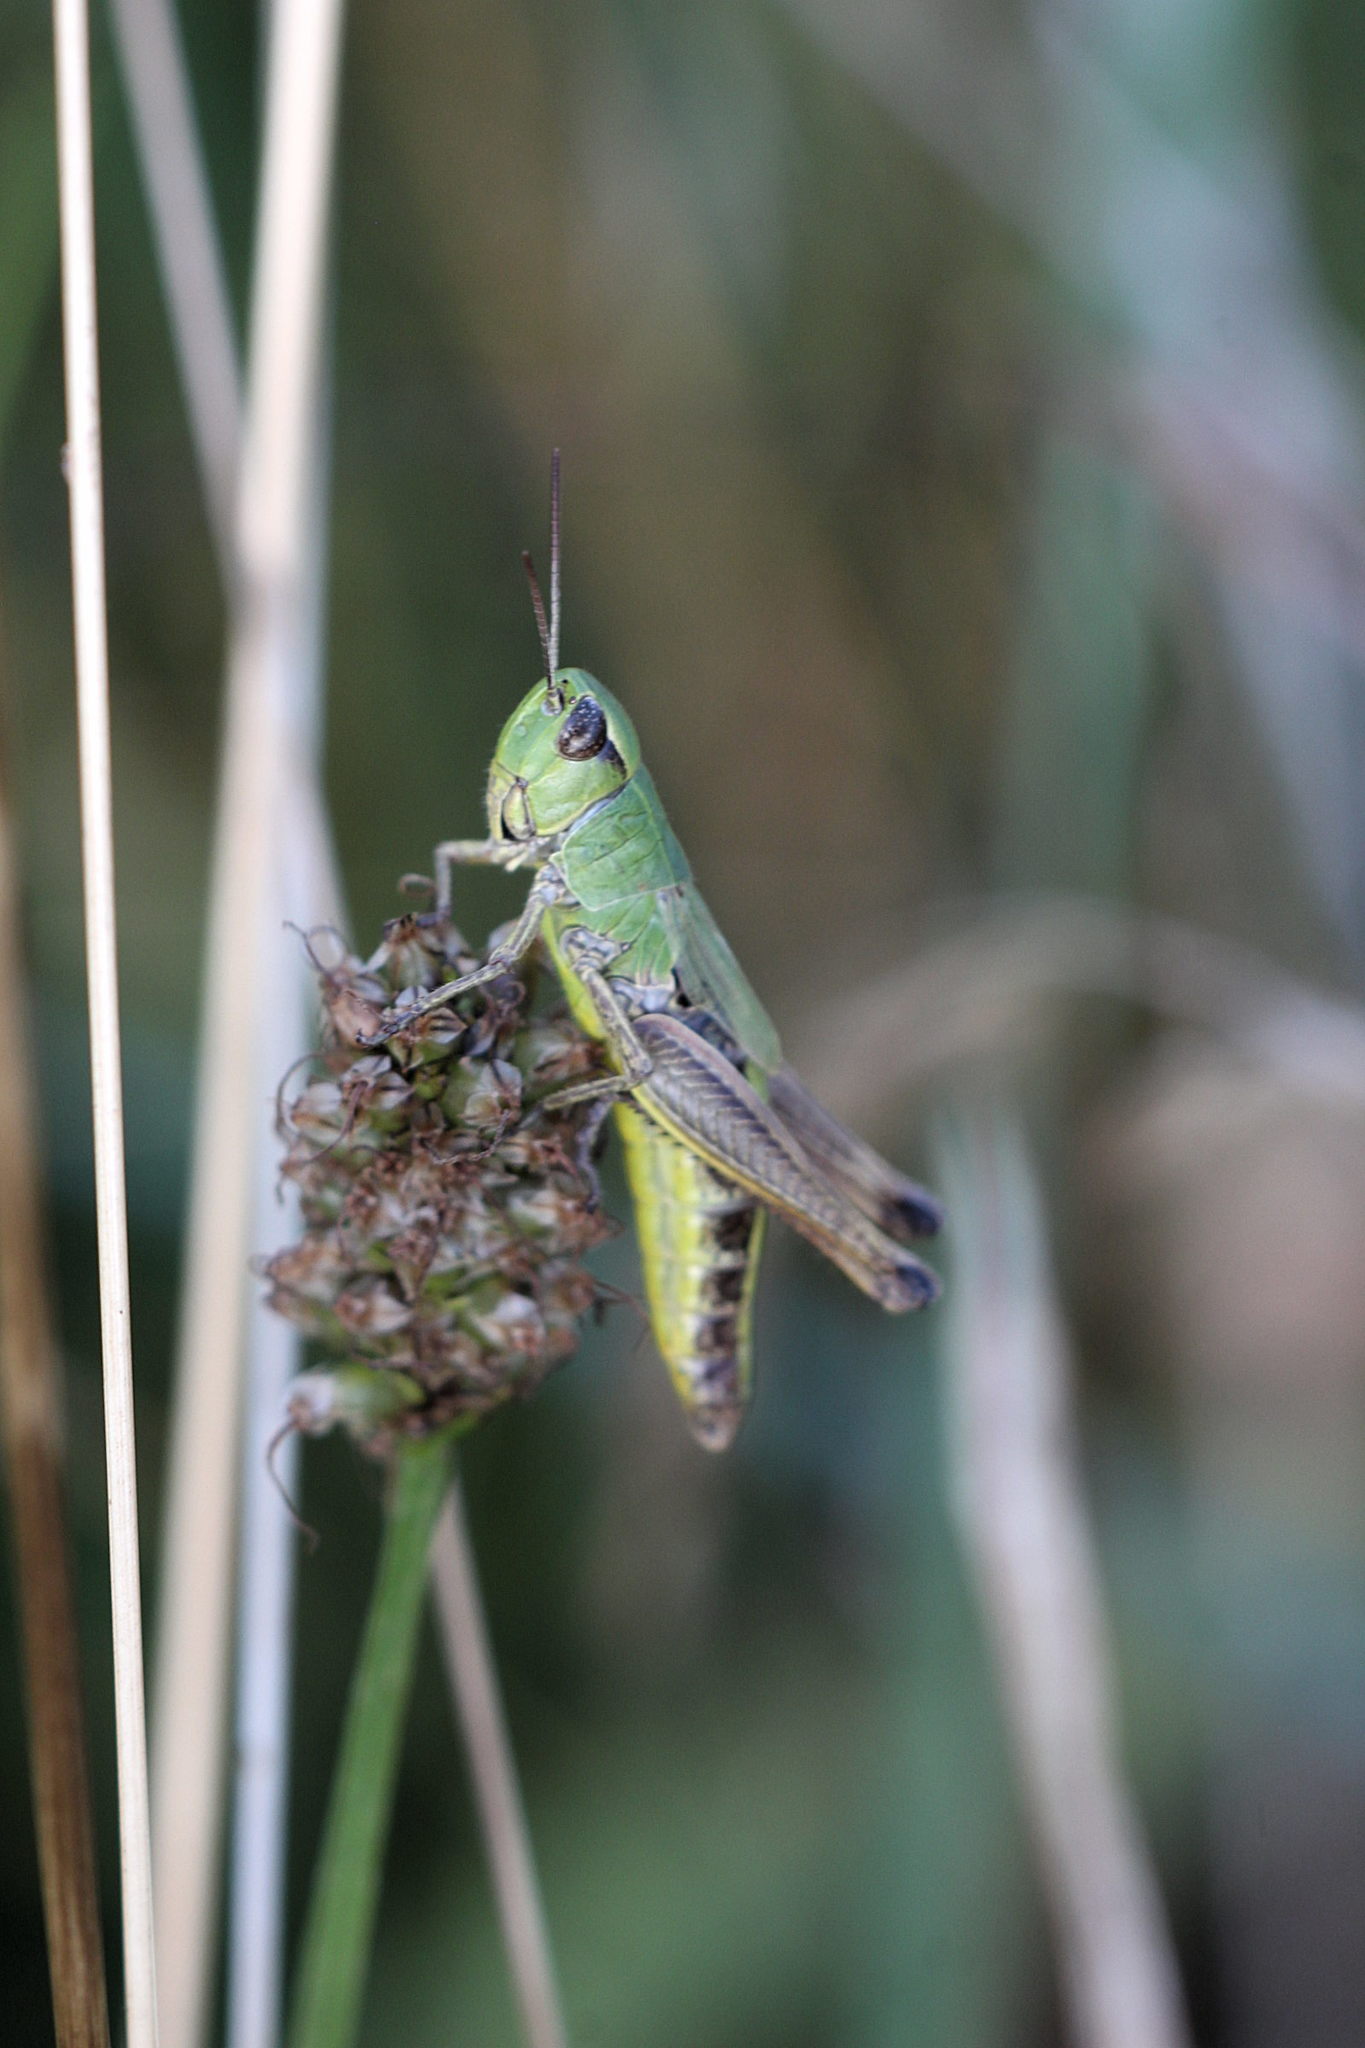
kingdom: Animalia
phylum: Arthropoda
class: Insecta
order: Orthoptera
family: Acrididae
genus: Pseudochorthippus
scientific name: Pseudochorthippus parallelus
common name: Meadow grasshopper
